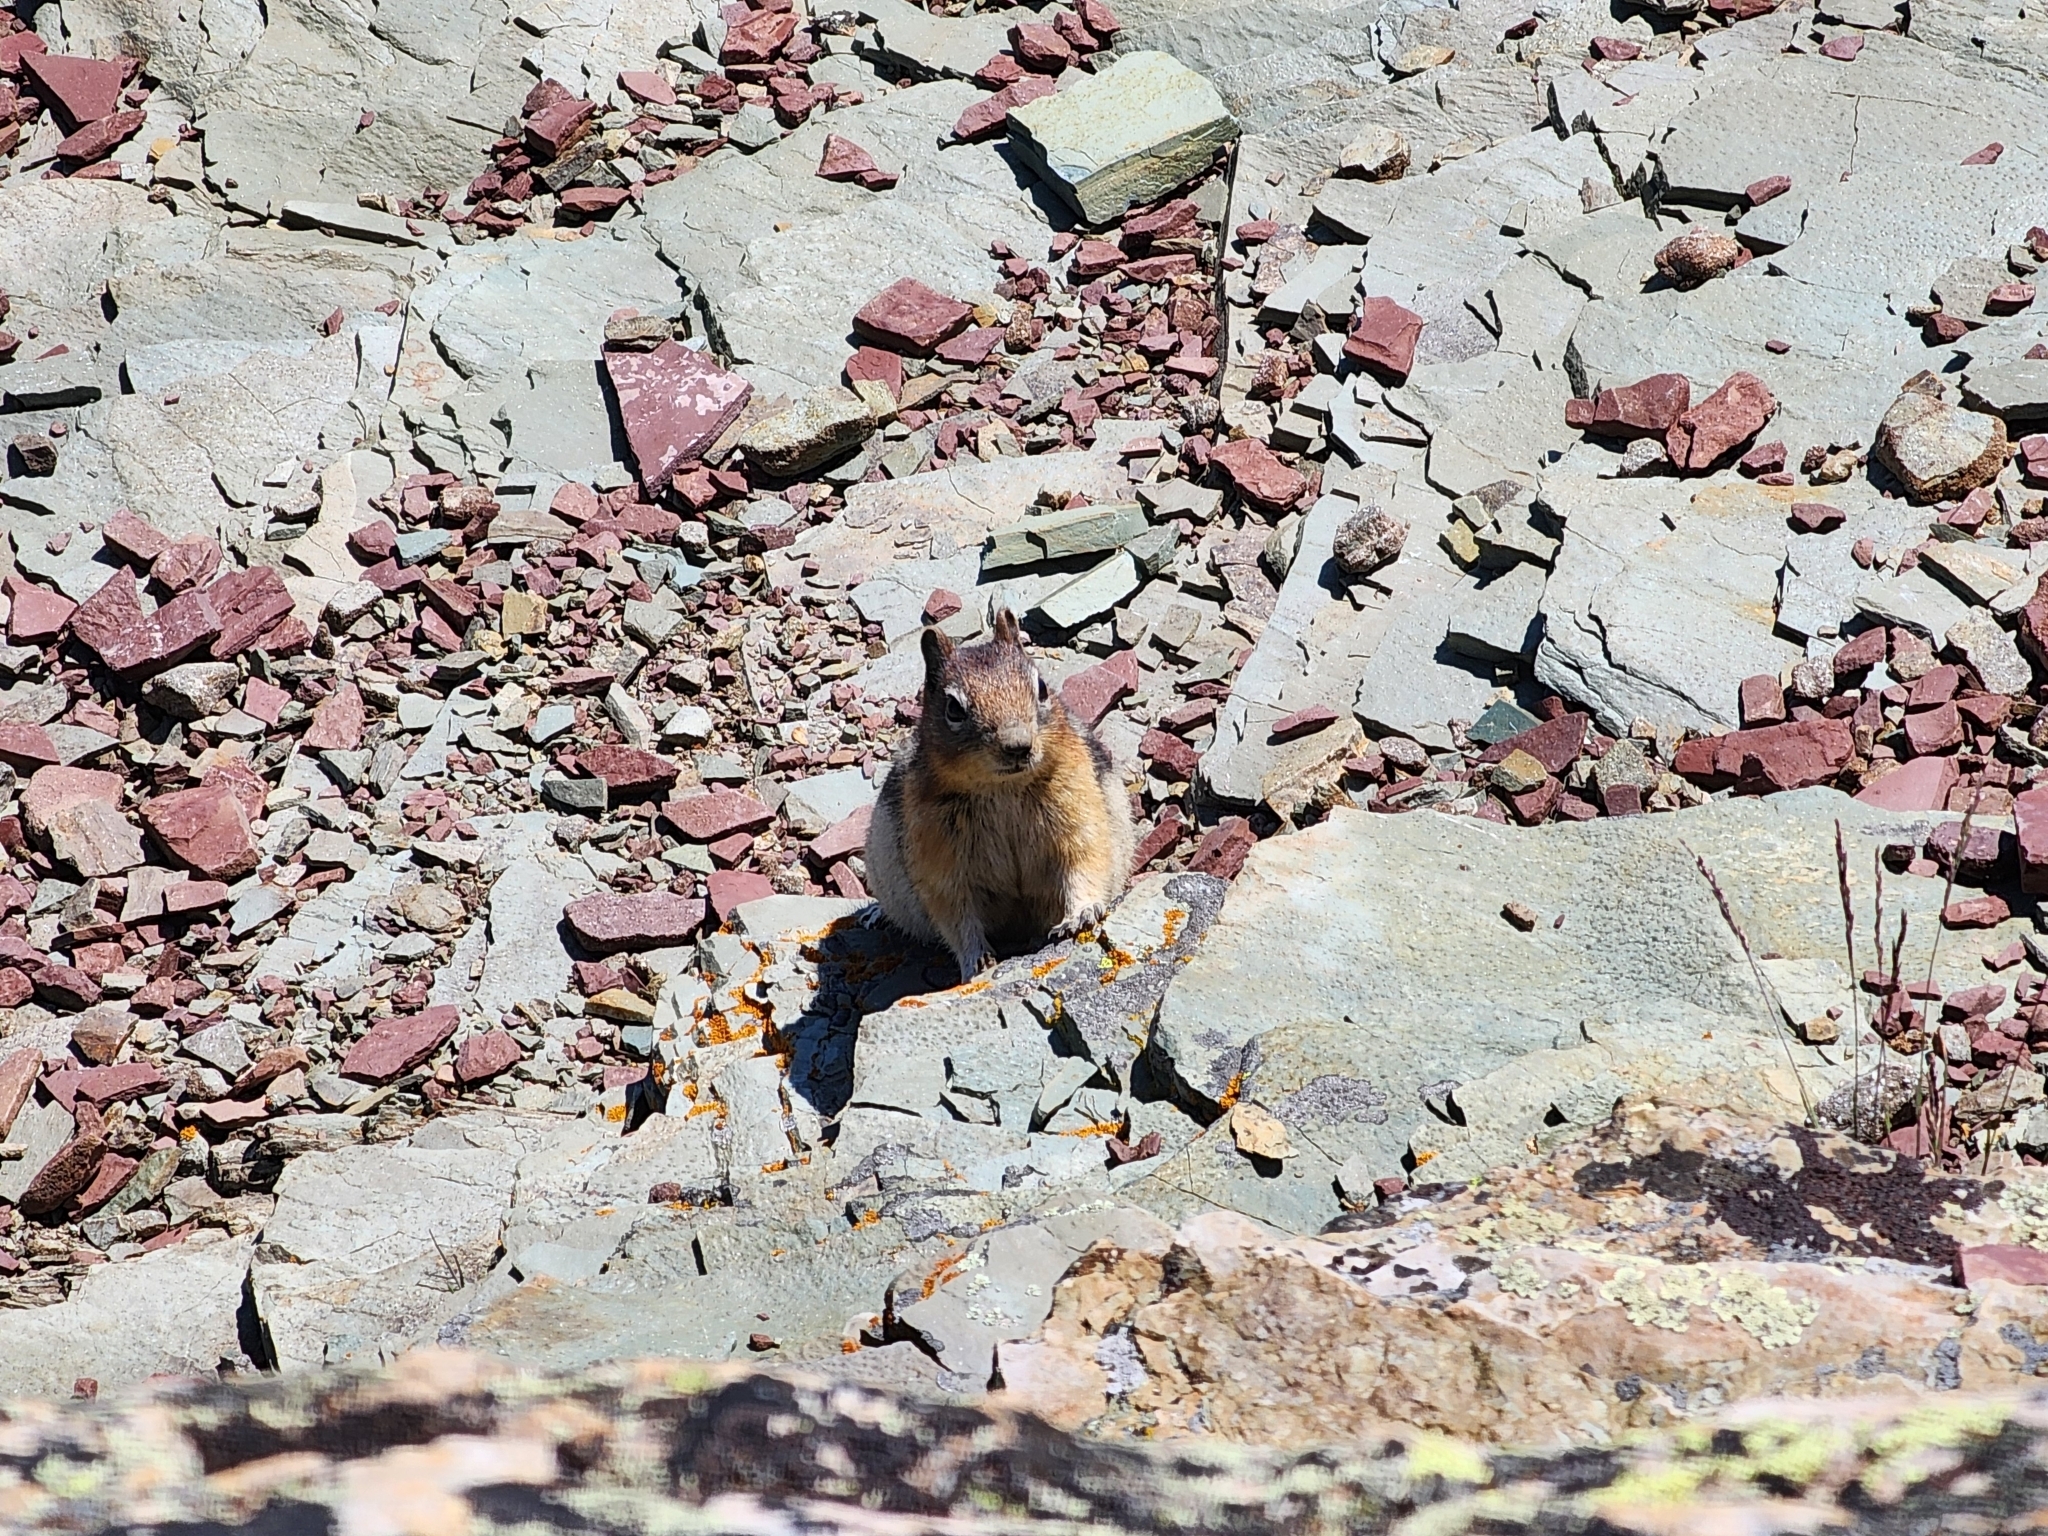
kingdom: Animalia
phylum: Chordata
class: Mammalia
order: Rodentia
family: Sciuridae
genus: Callospermophilus
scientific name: Callospermophilus lateralis
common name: Golden-mantled ground squirrel
